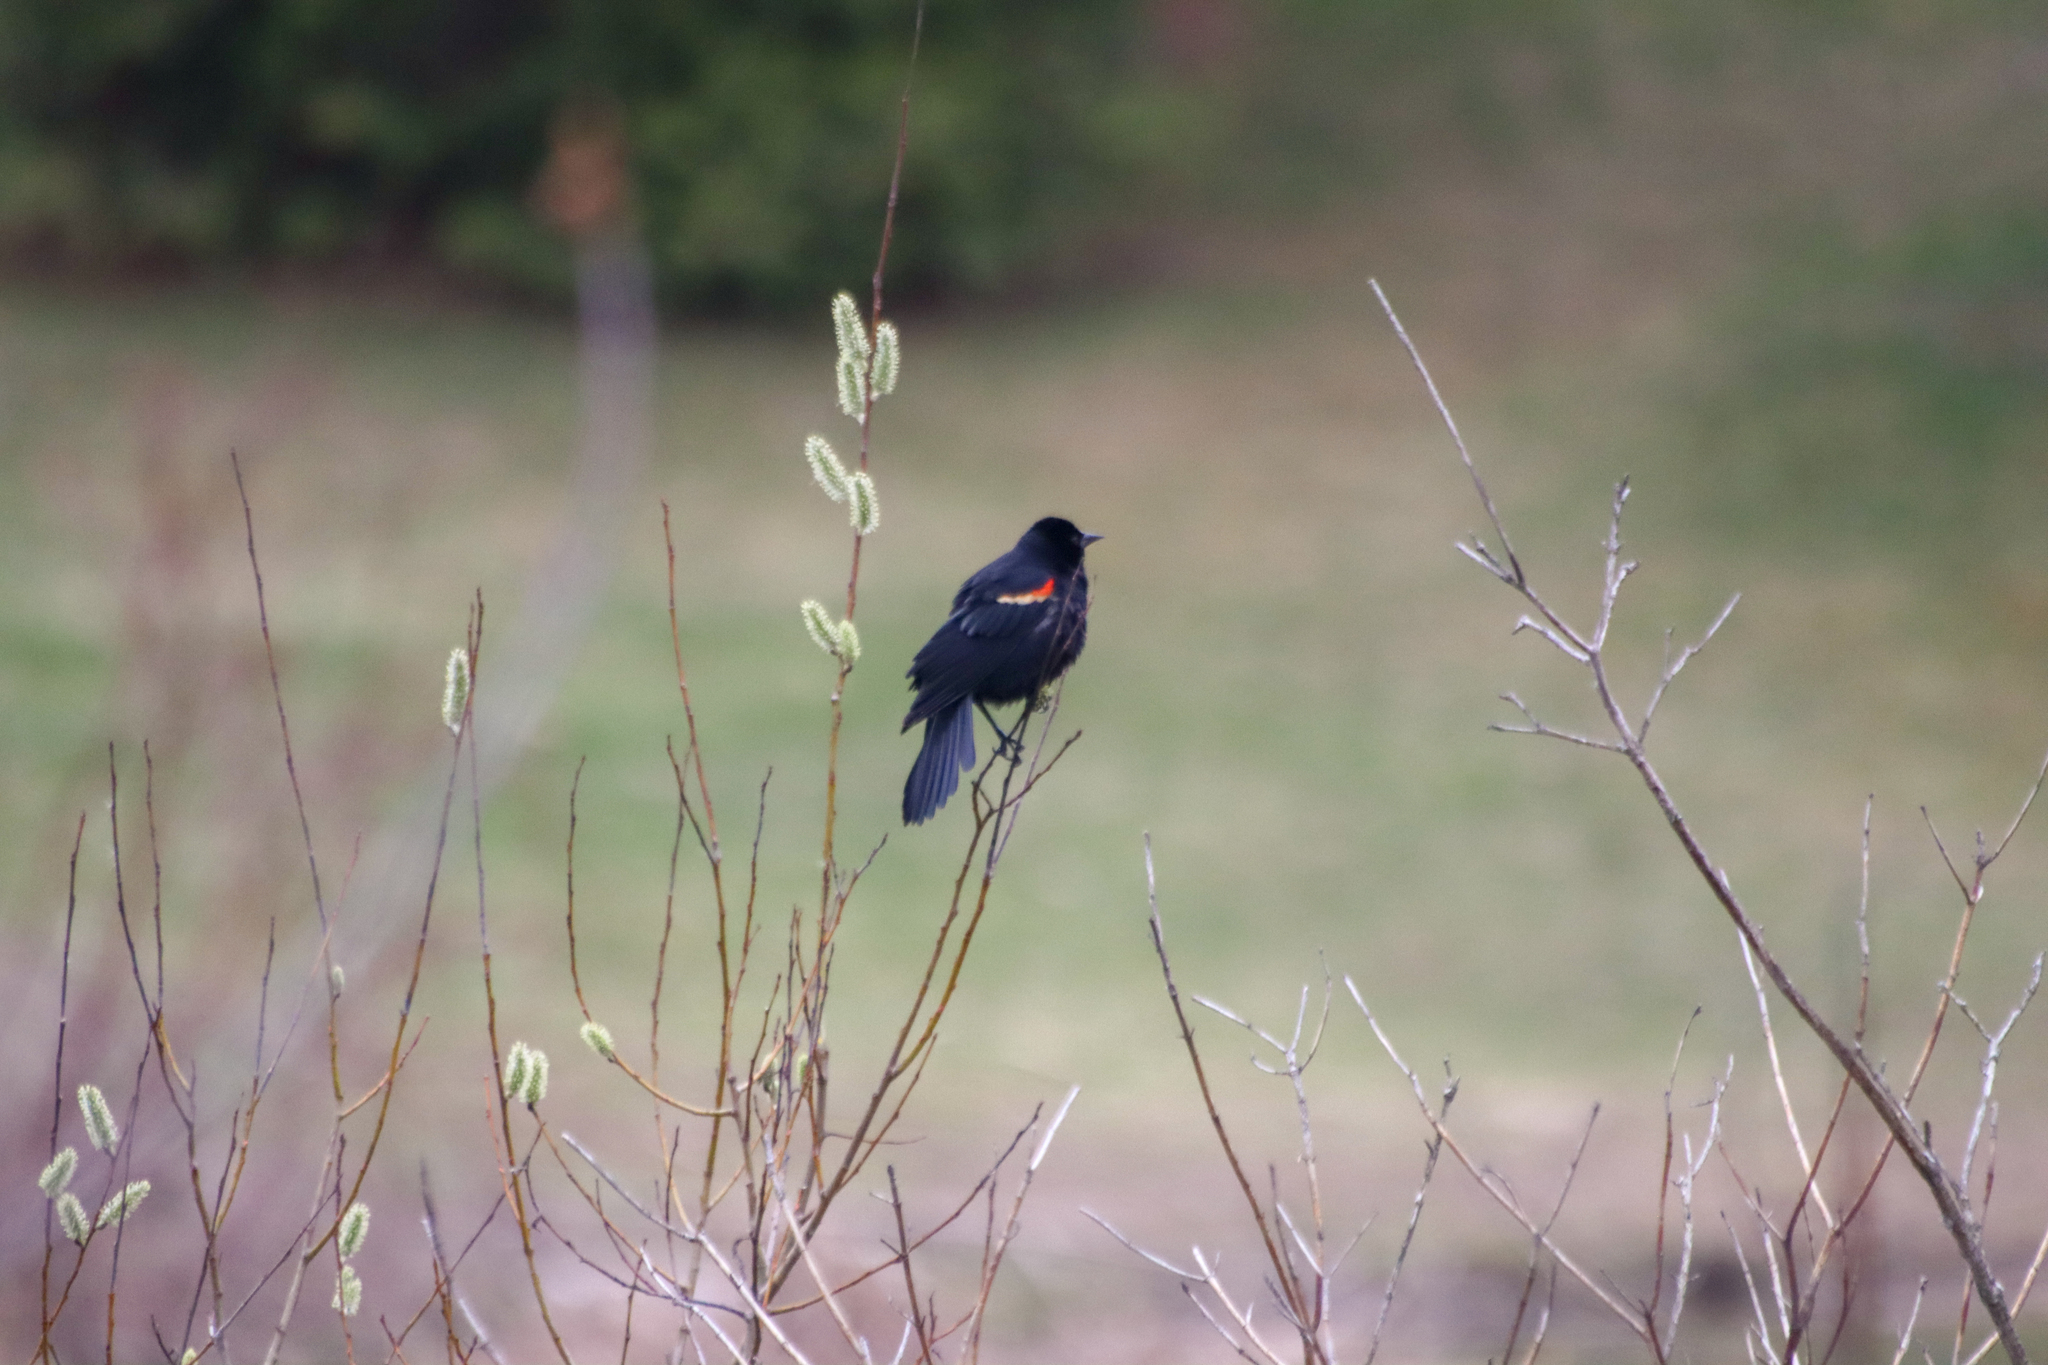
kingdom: Animalia
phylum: Chordata
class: Aves
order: Passeriformes
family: Icteridae
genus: Agelaius
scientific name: Agelaius phoeniceus
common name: Red-winged blackbird
